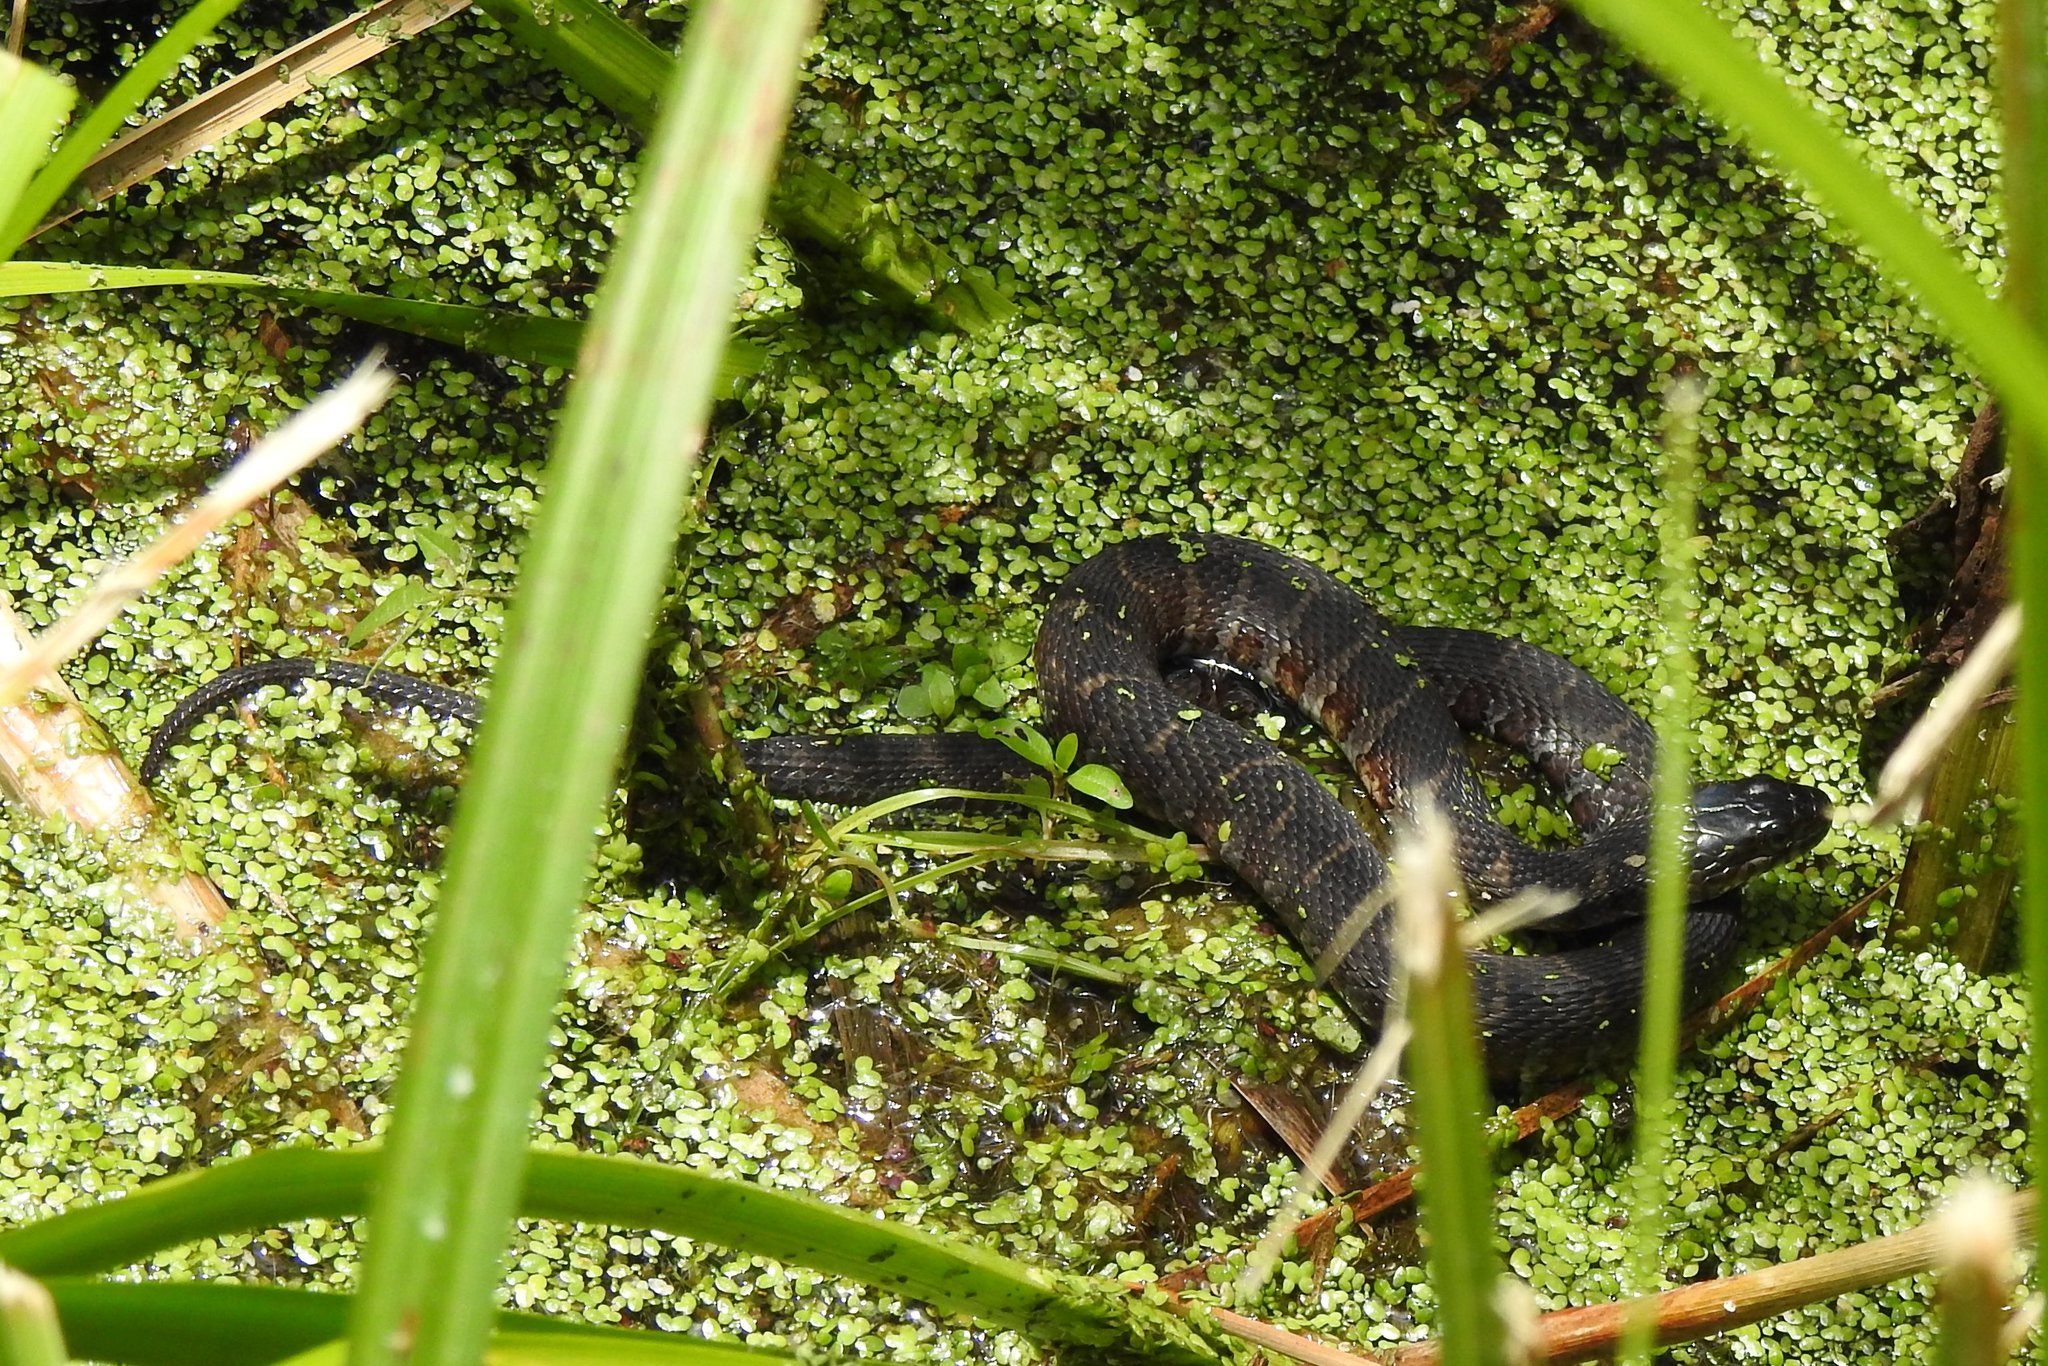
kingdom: Animalia
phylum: Chordata
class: Squamata
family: Colubridae
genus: Nerodia
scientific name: Nerodia sipedon
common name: Northern water snake
